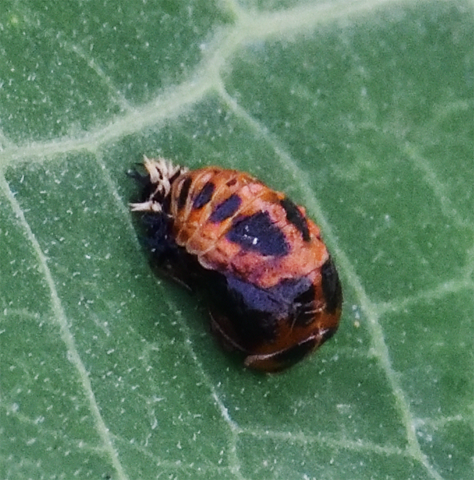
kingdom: Animalia
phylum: Arthropoda
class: Insecta
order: Coleoptera
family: Coccinellidae
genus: Harmonia
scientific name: Harmonia axyridis
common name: Harlequin ladybird
